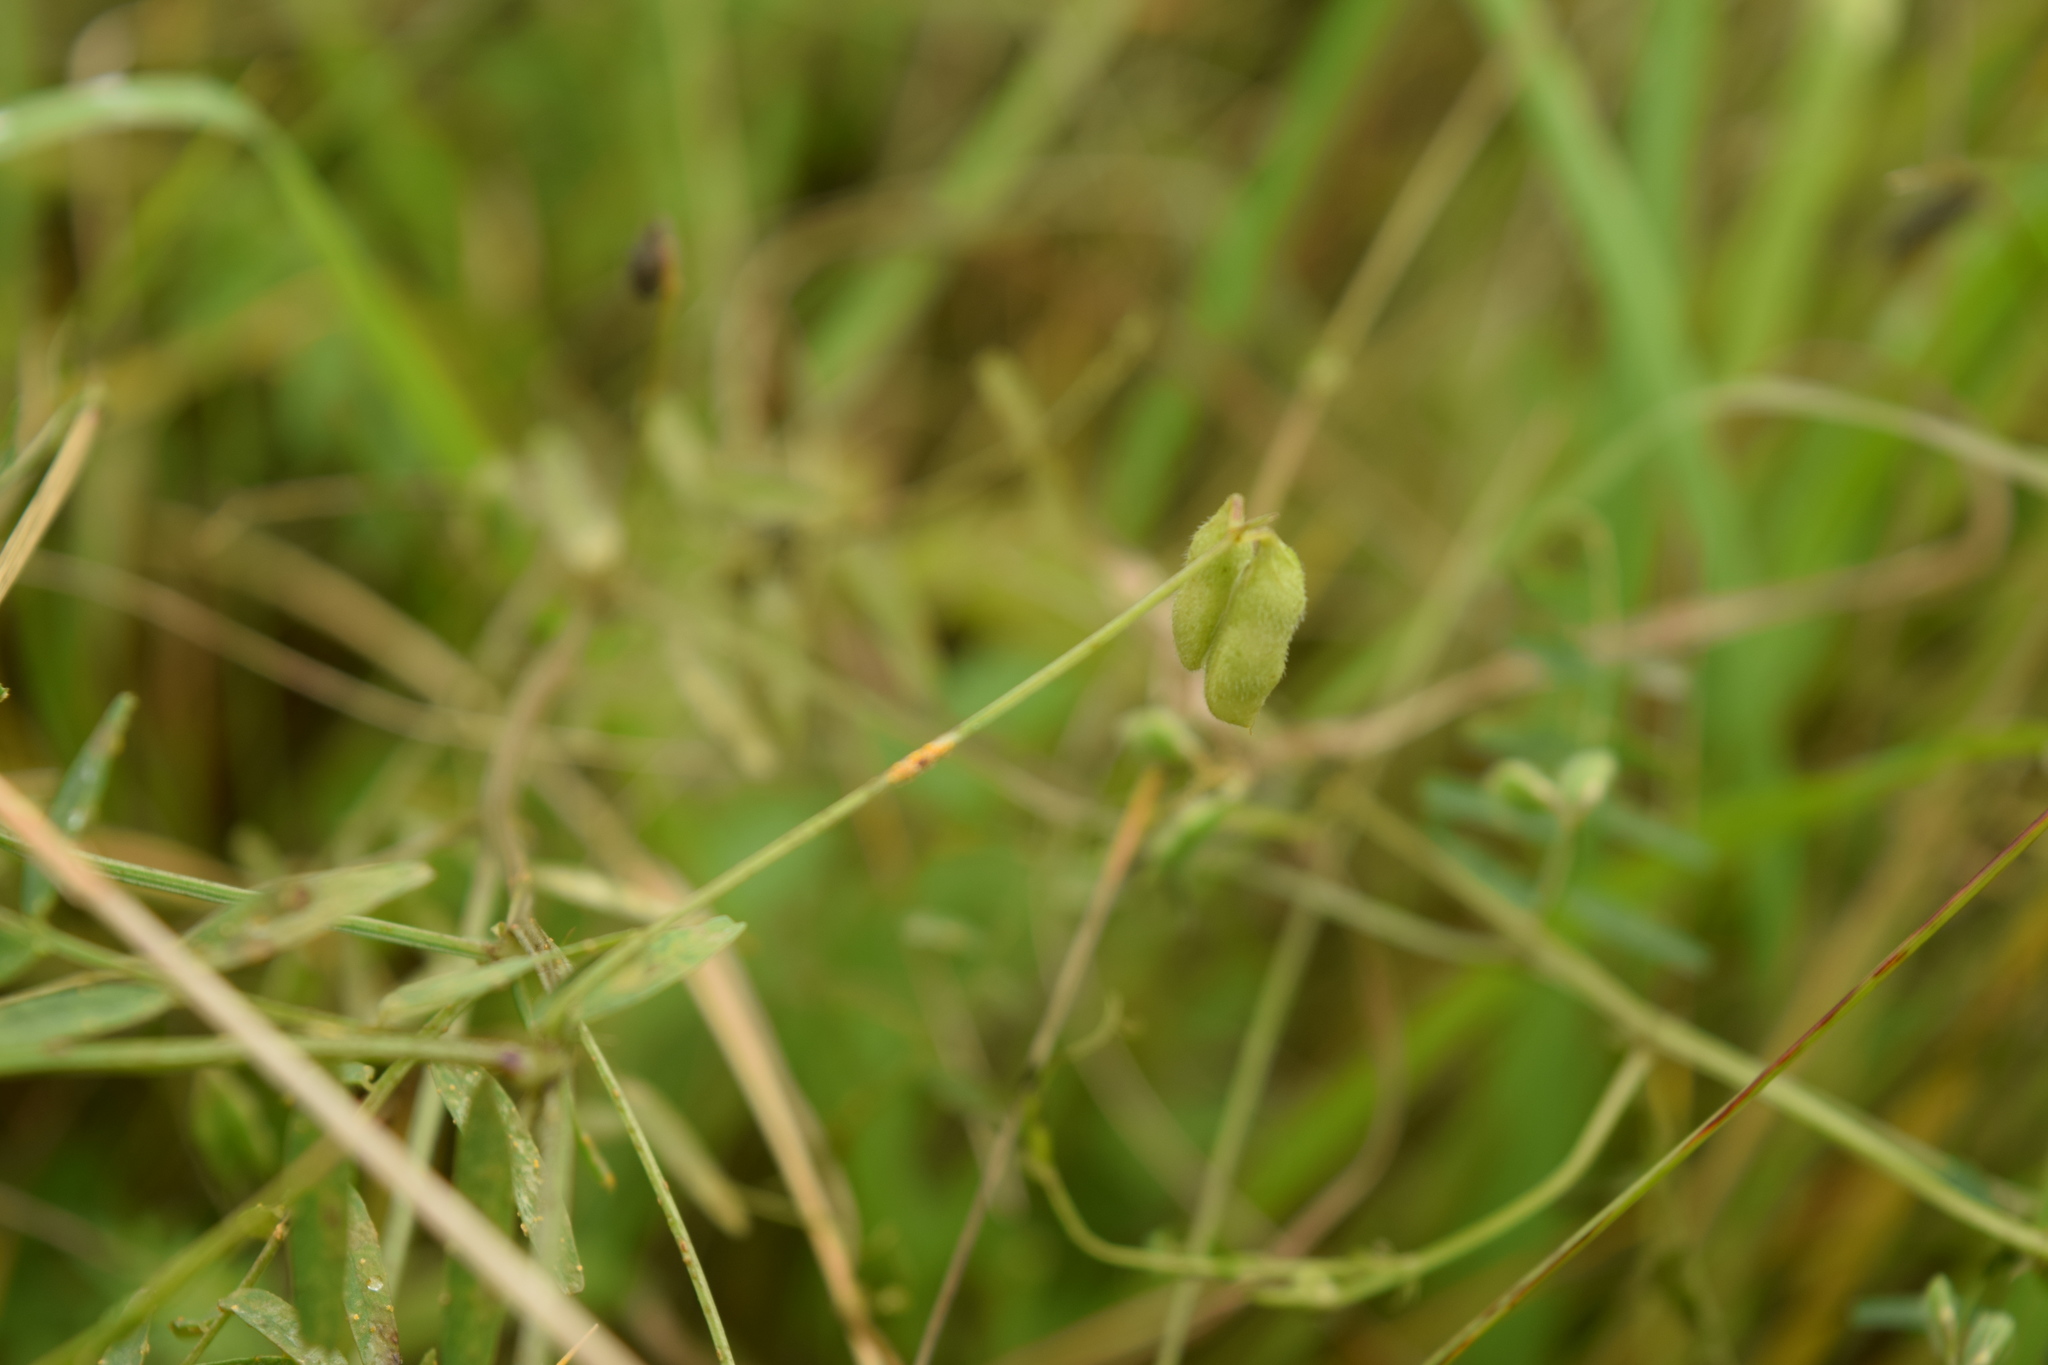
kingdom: Plantae
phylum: Tracheophyta
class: Magnoliopsida
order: Fabales
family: Fabaceae
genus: Vicia
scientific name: Vicia hirsuta
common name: Tiny vetch
